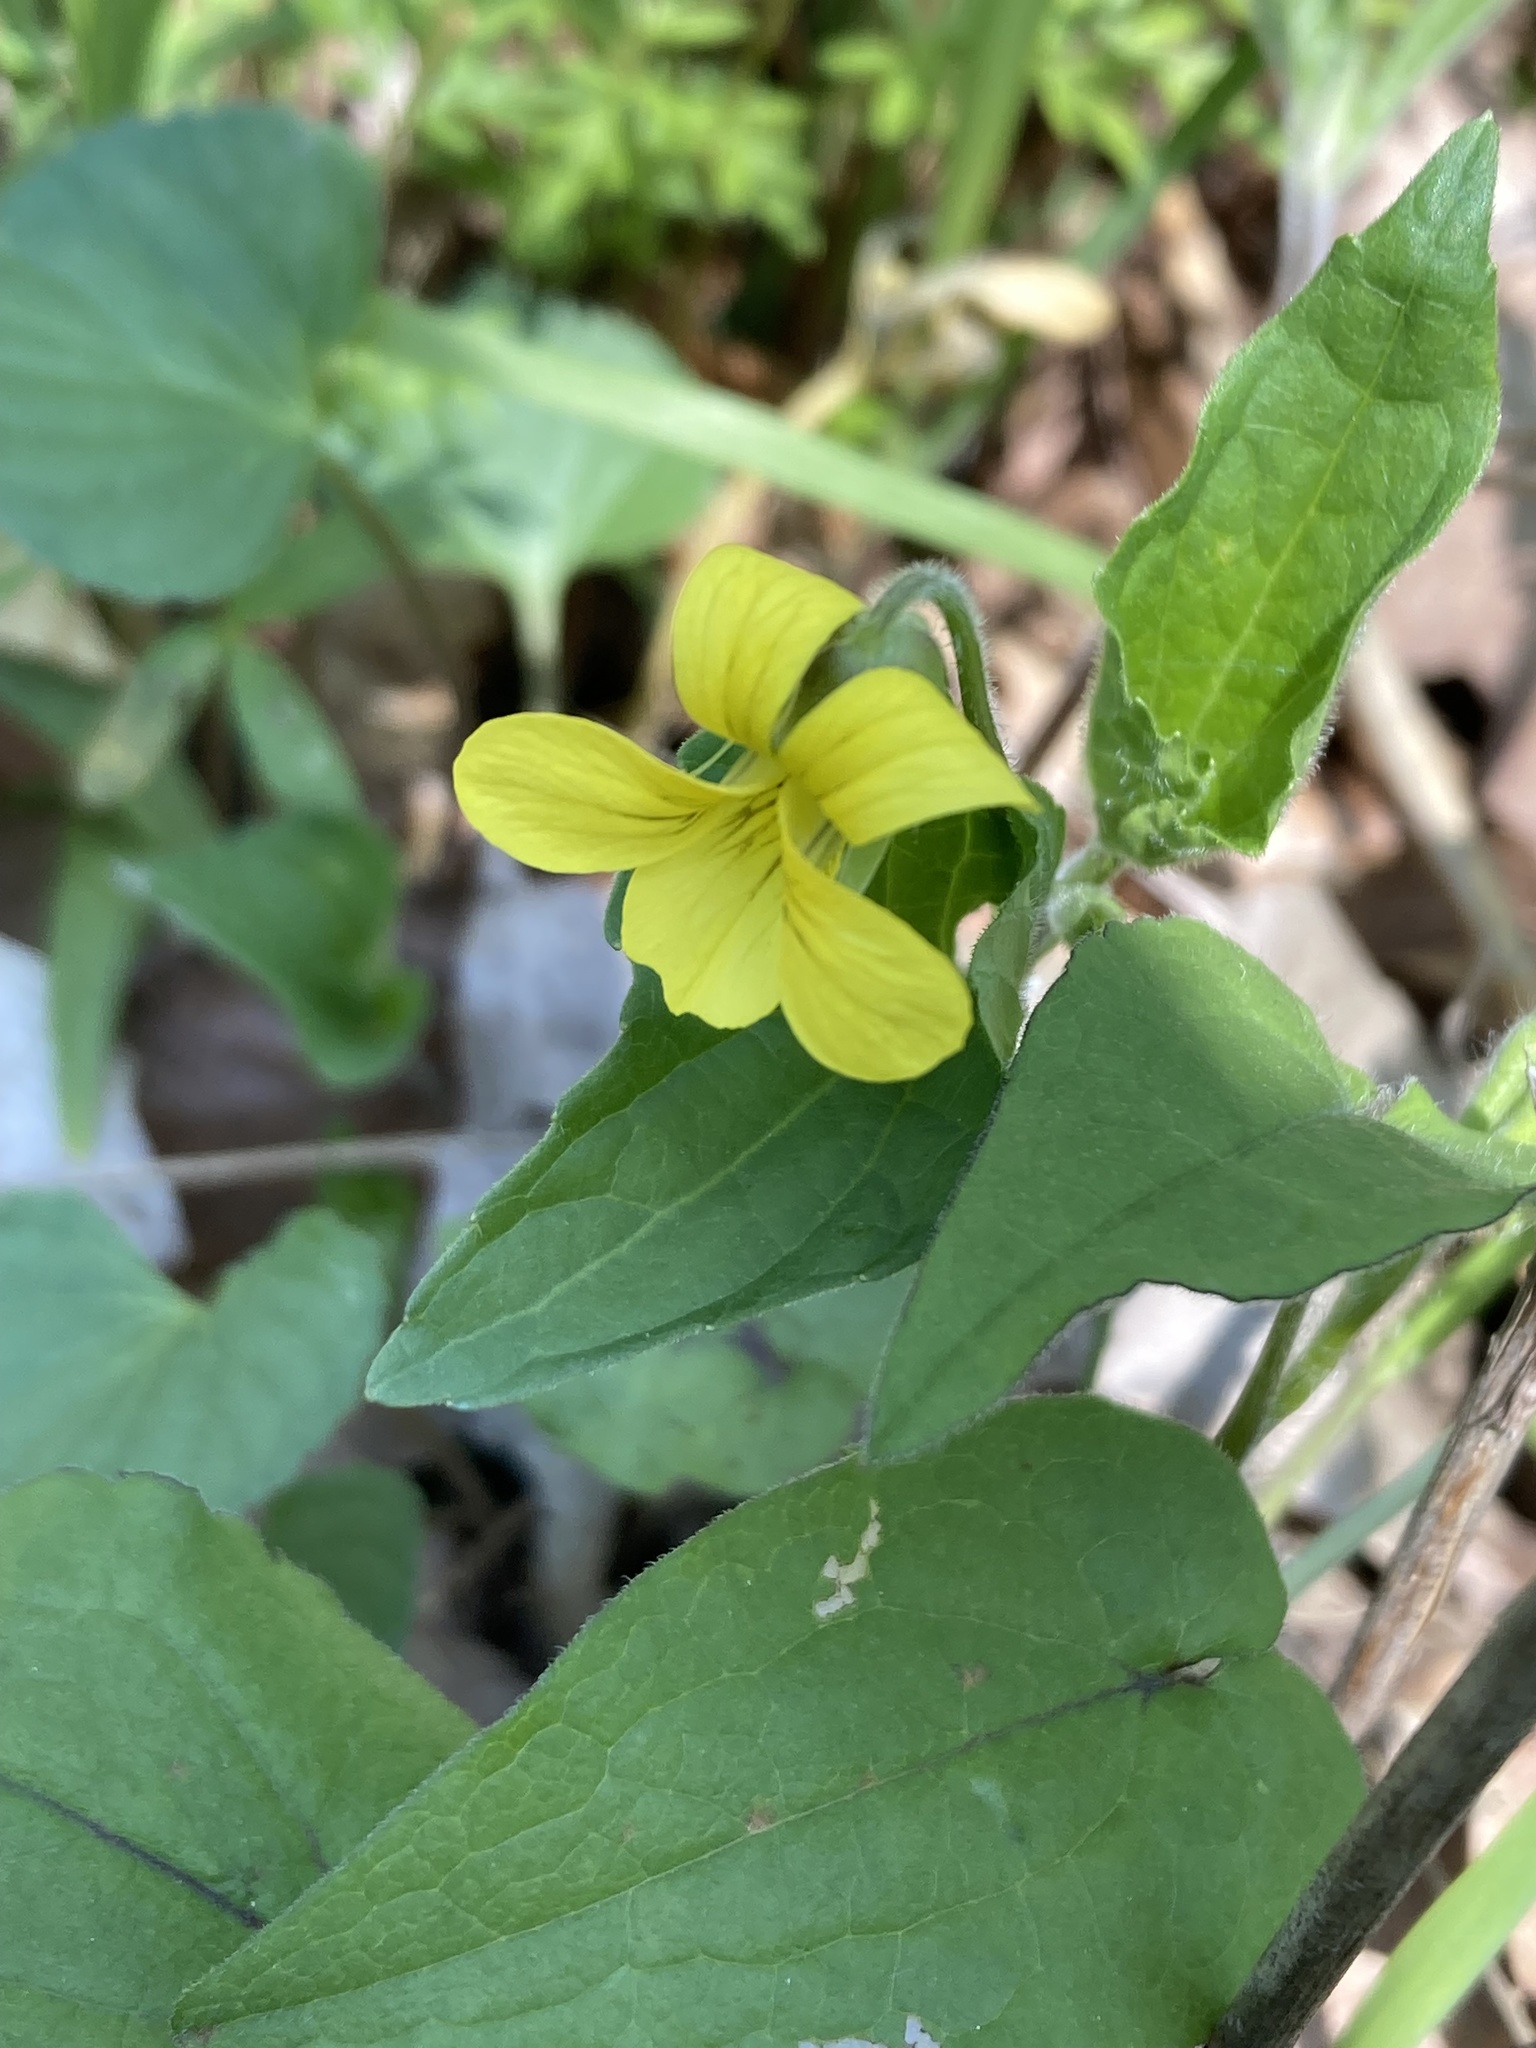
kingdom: Plantae
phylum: Tracheophyta
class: Magnoliopsida
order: Malpighiales
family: Violaceae
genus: Viola
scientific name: Viola eriocarpa
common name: Smooth yellow violet
